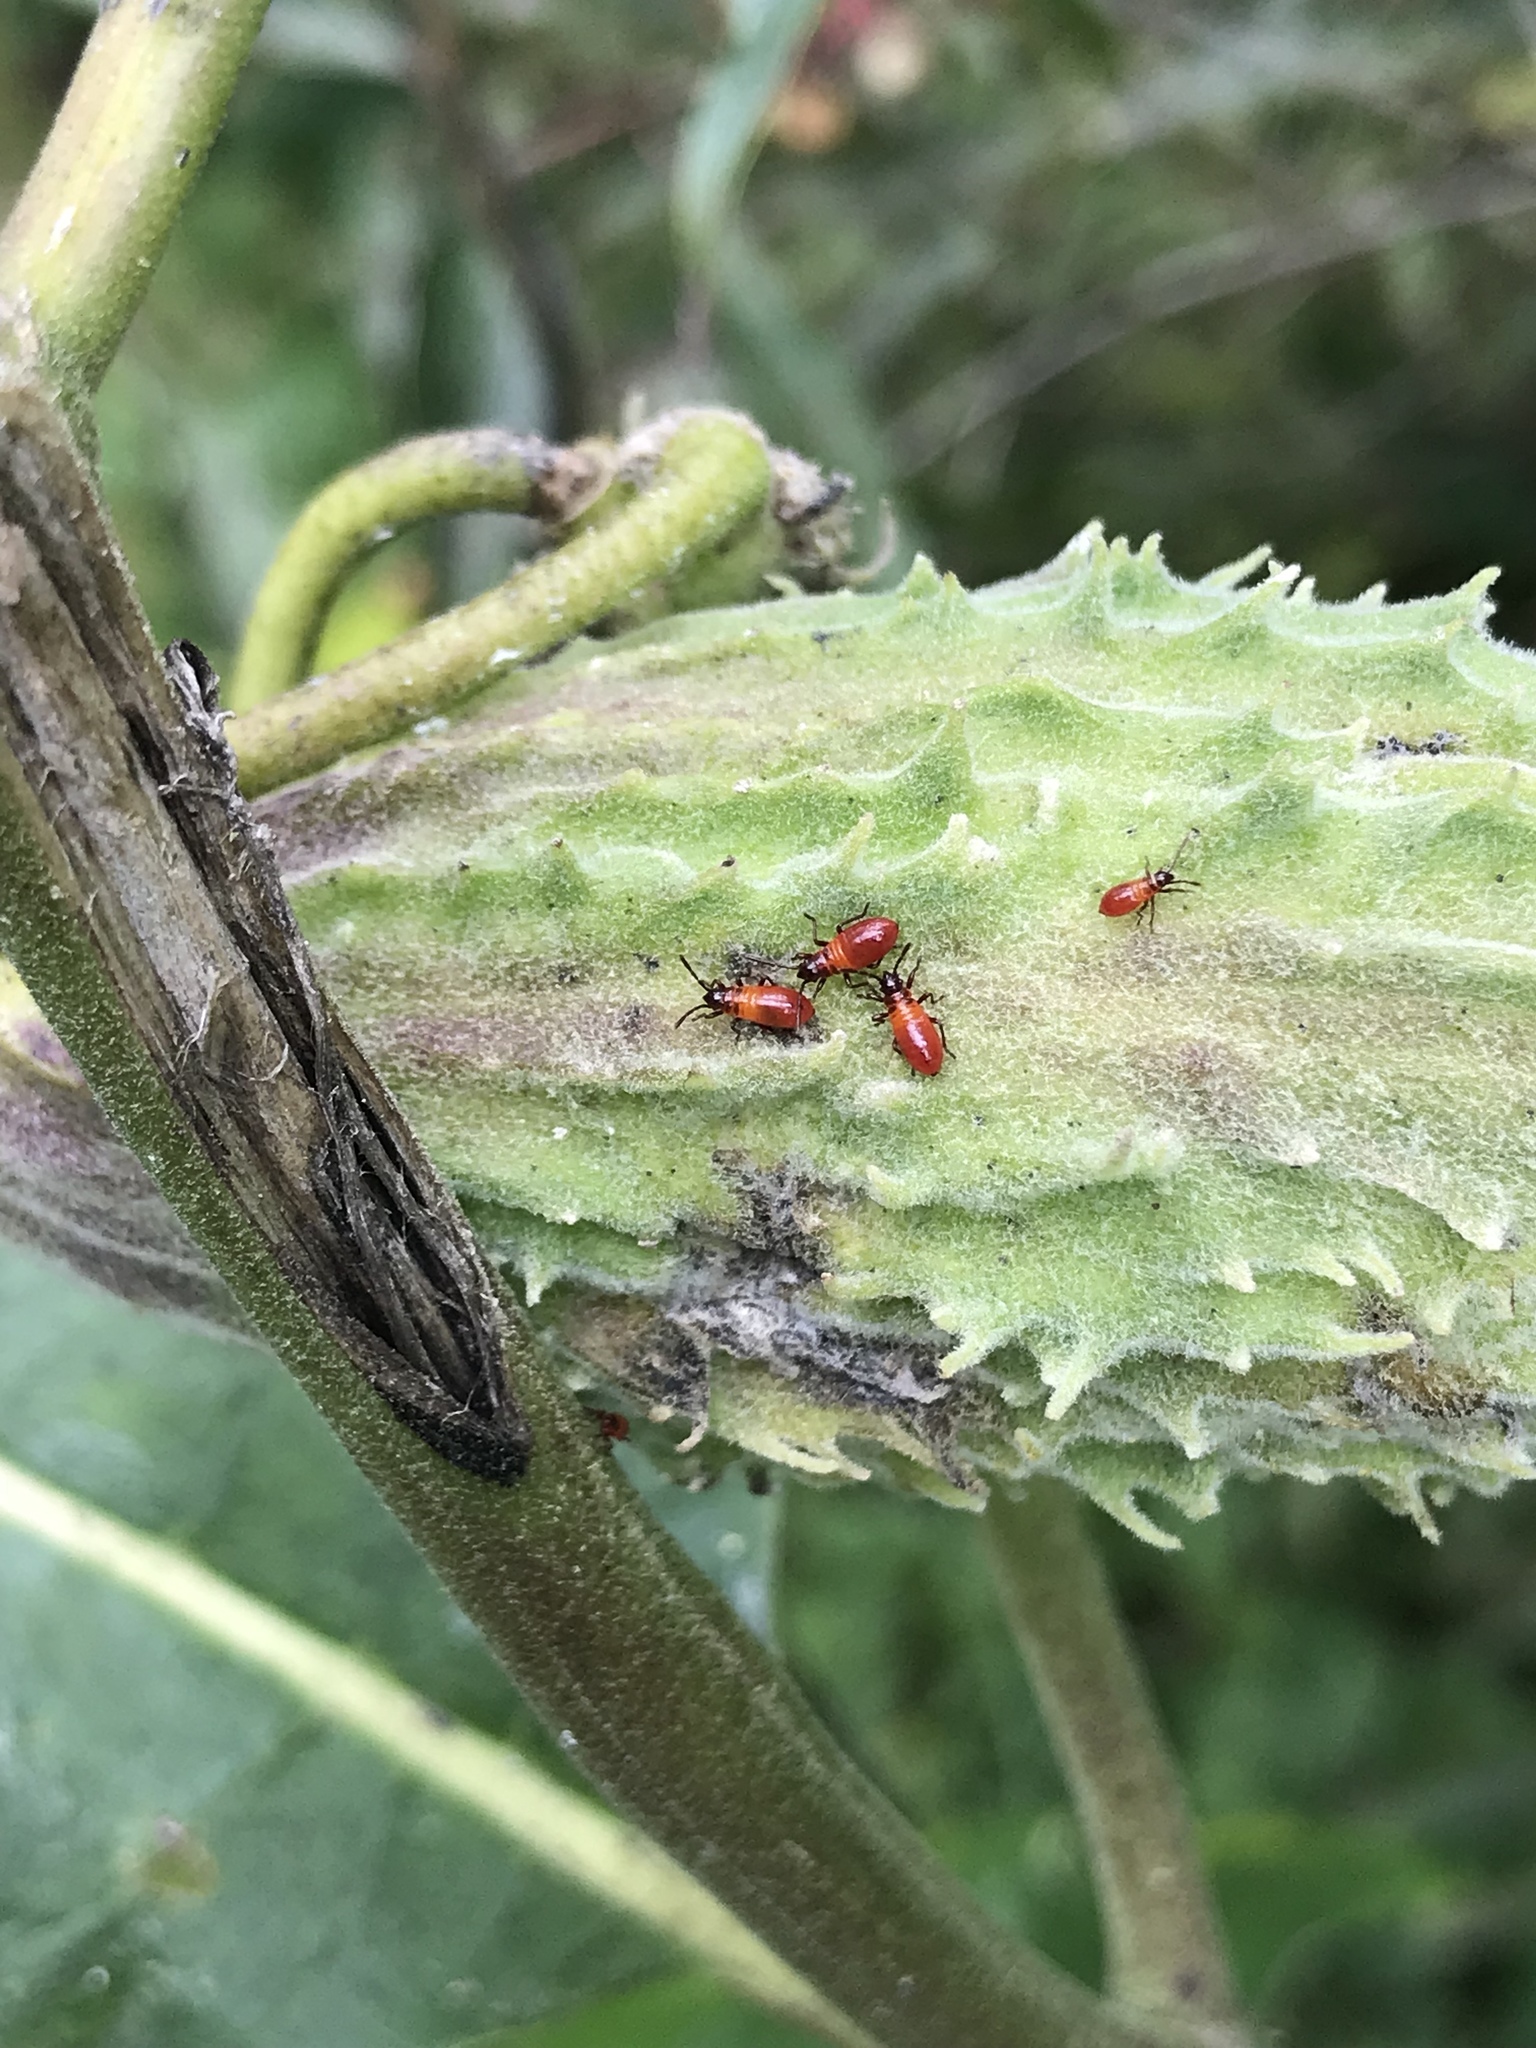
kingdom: Animalia
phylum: Arthropoda
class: Insecta
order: Hemiptera
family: Lygaeidae
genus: Oncopeltus
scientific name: Oncopeltus fasciatus
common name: Large milkweed bug
